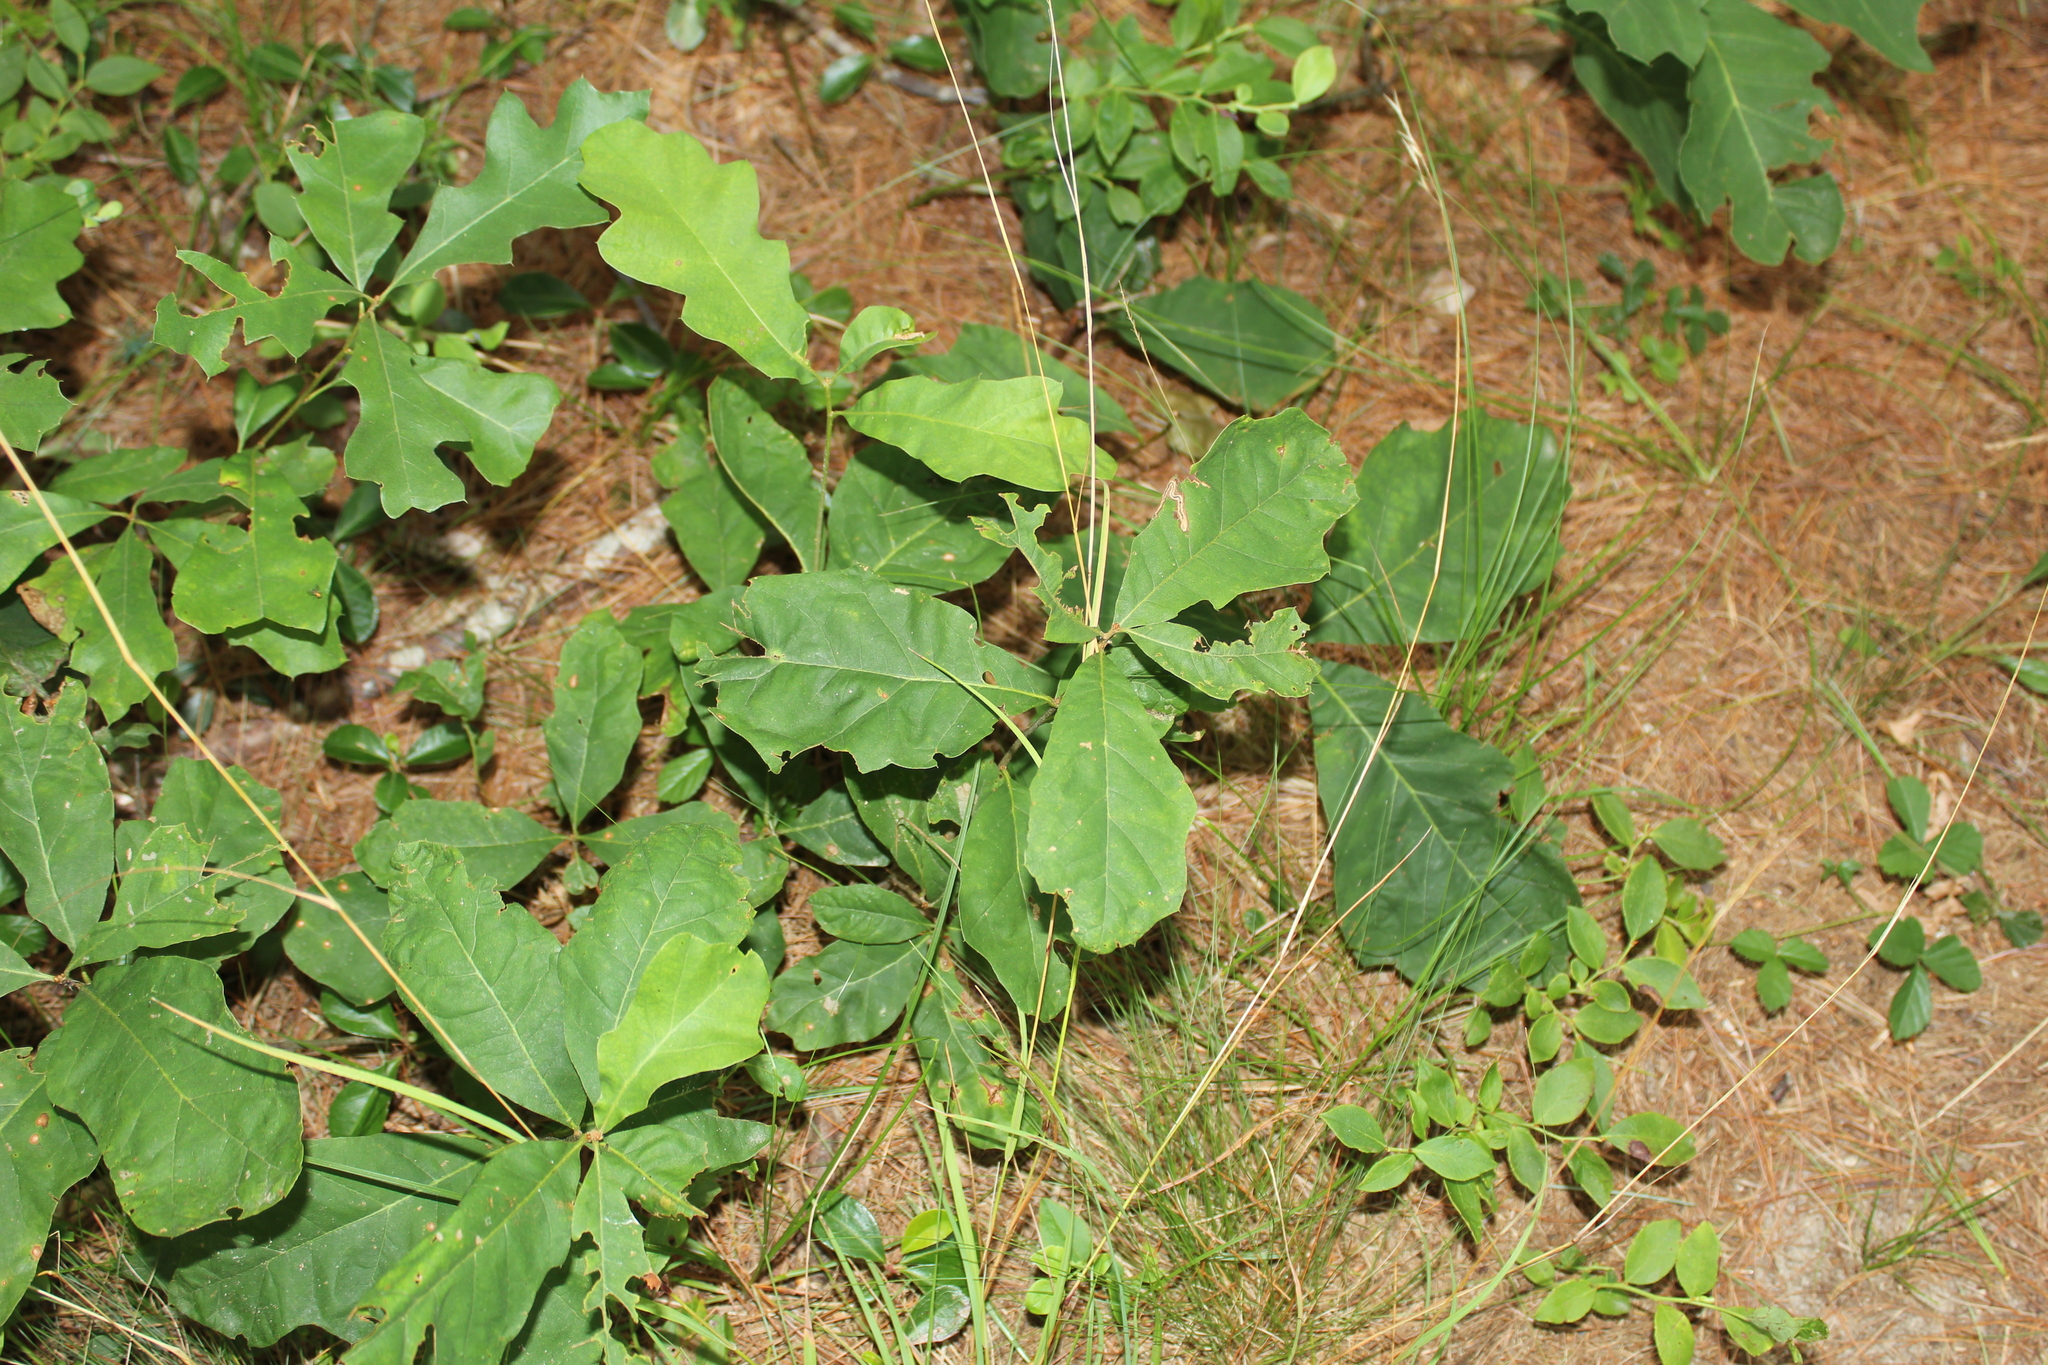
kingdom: Animalia
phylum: Arthropoda
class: Insecta
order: Lepidoptera
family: Nepticulidae
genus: Stigmella
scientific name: Stigmella
